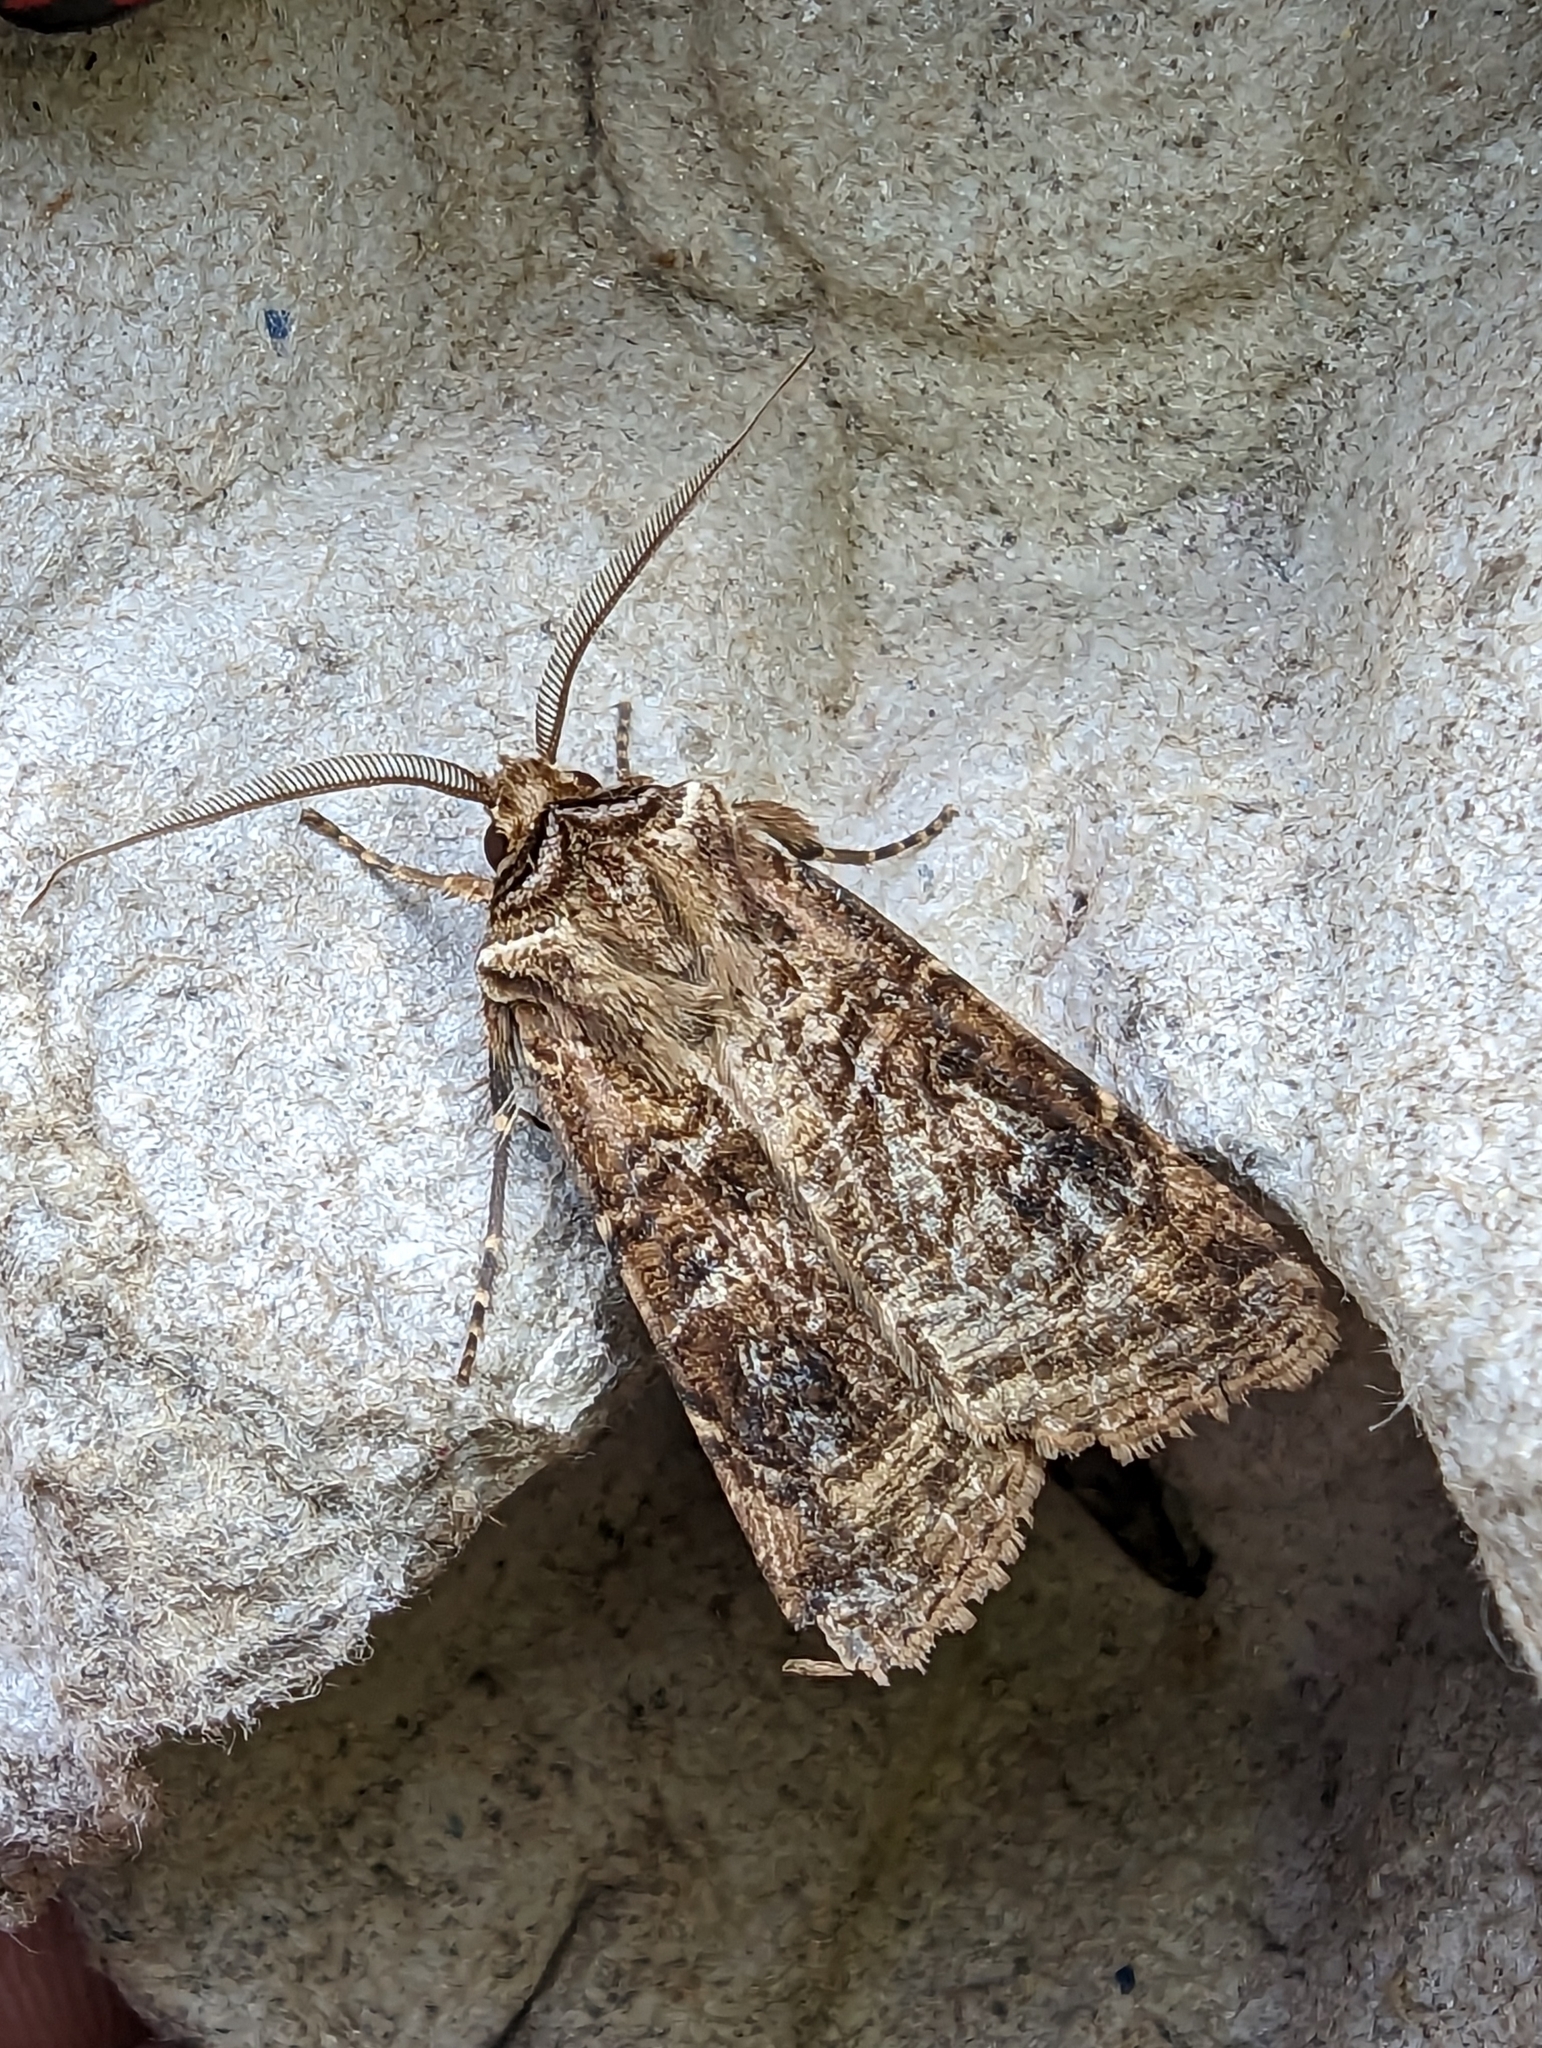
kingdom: Animalia
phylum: Arthropoda
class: Insecta
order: Lepidoptera
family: Noctuidae
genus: Agrotis
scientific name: Agrotis clavis
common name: Heart and club
